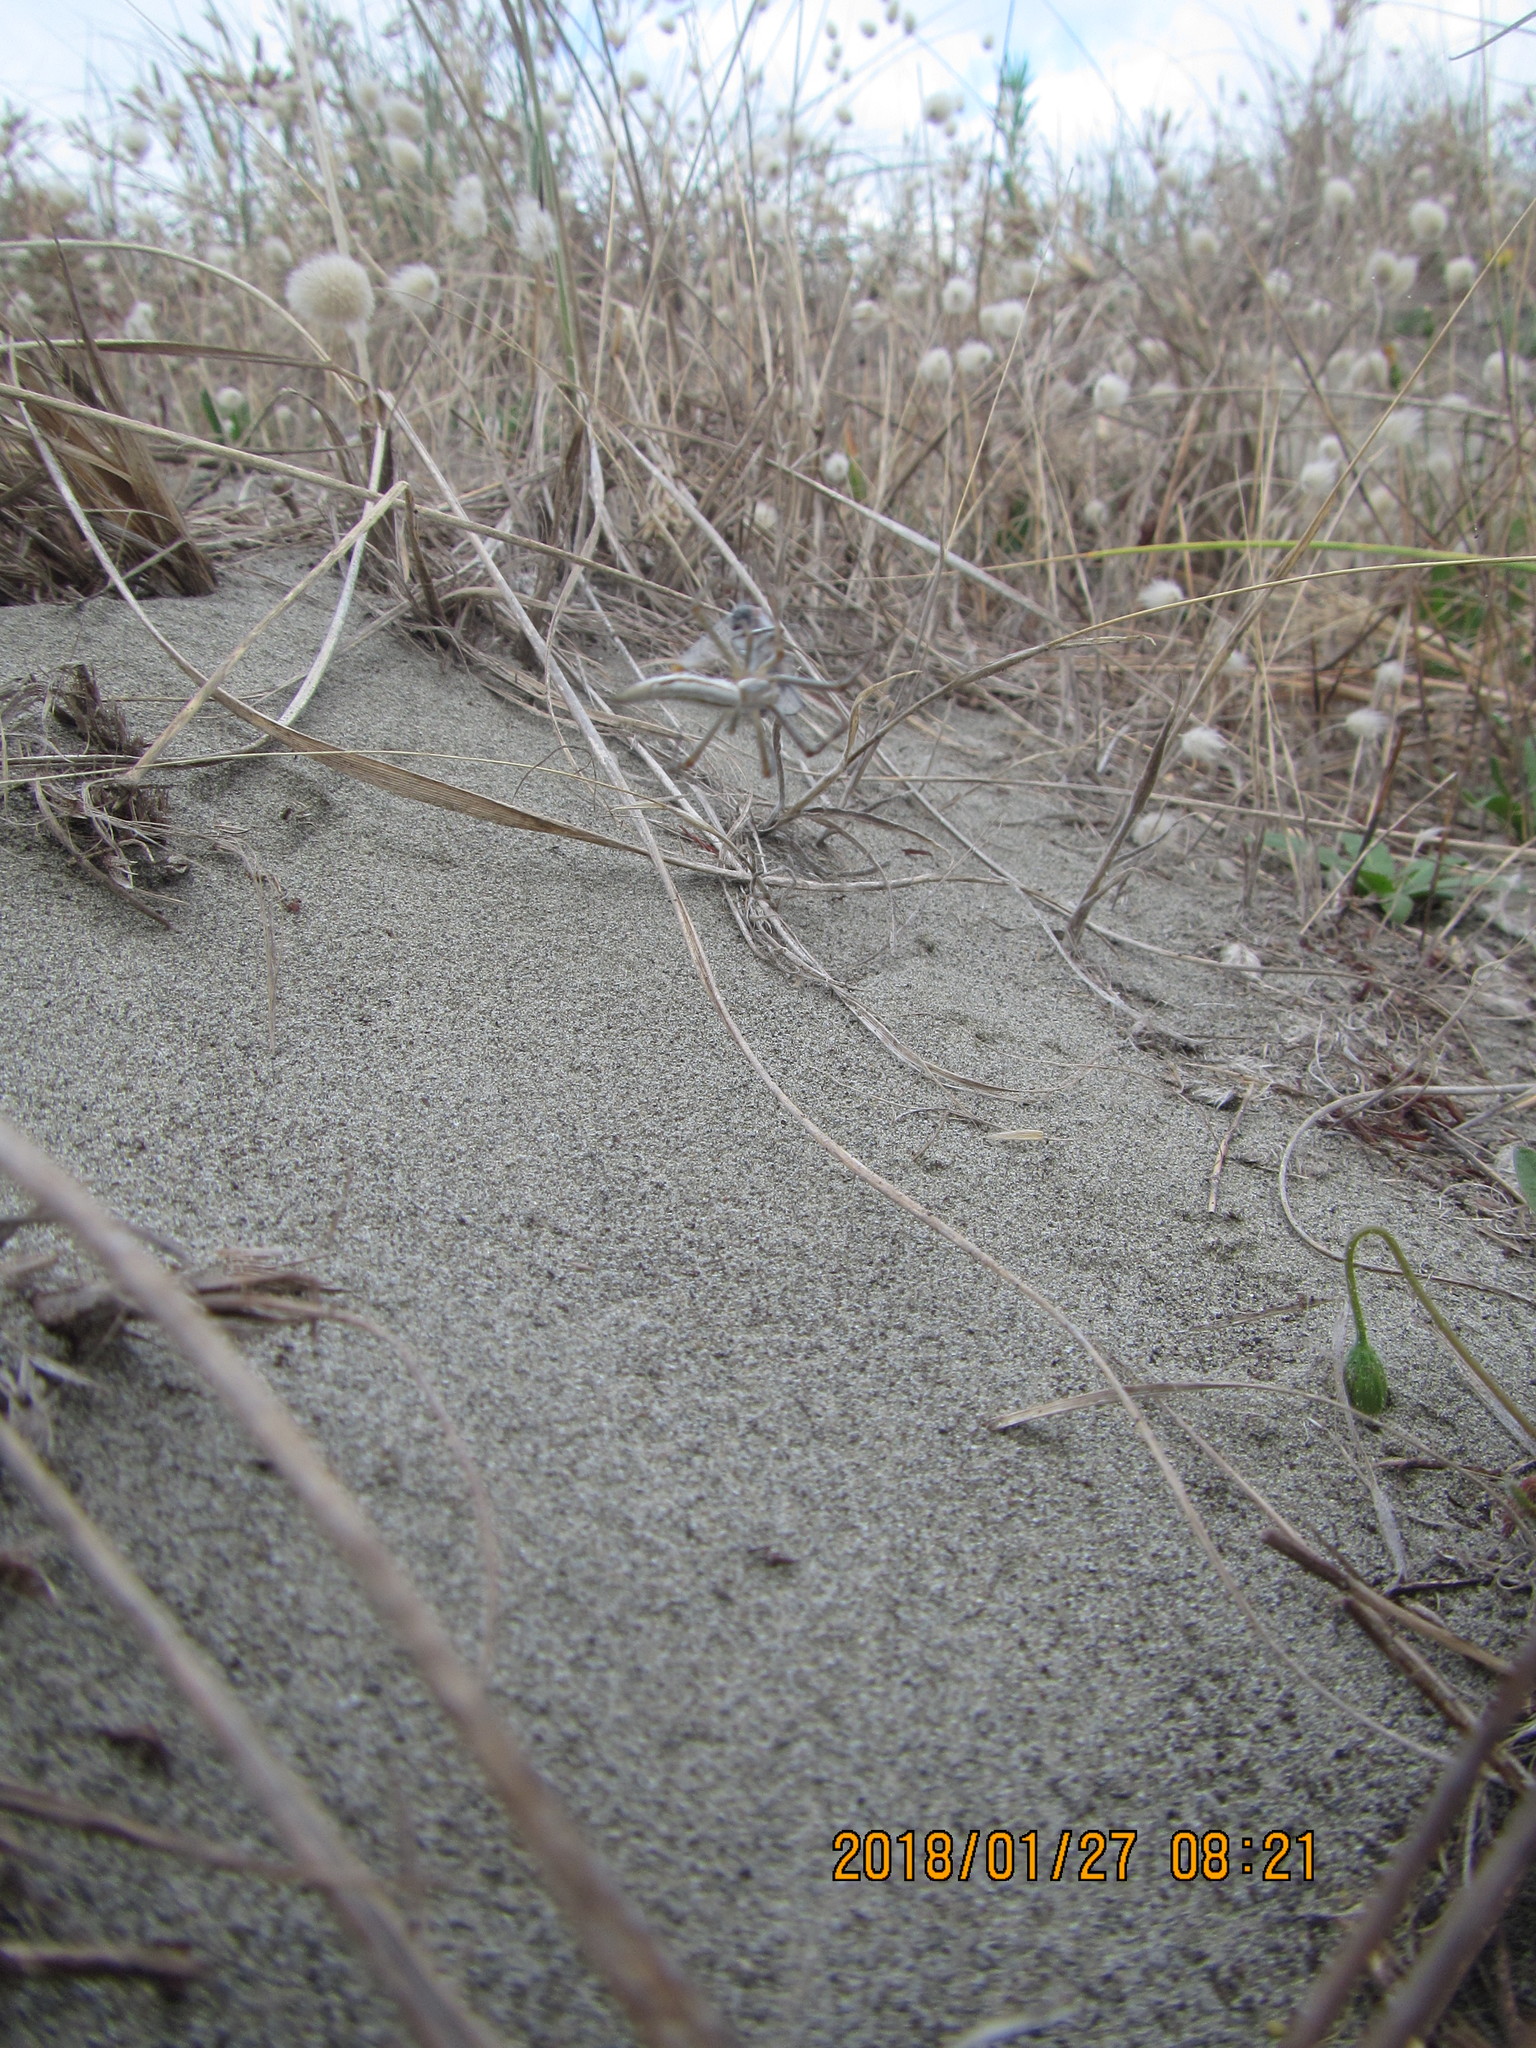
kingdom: Animalia
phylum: Arthropoda
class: Arachnida
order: Araneae
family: Araneidae
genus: Argiope
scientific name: Argiope protensa
